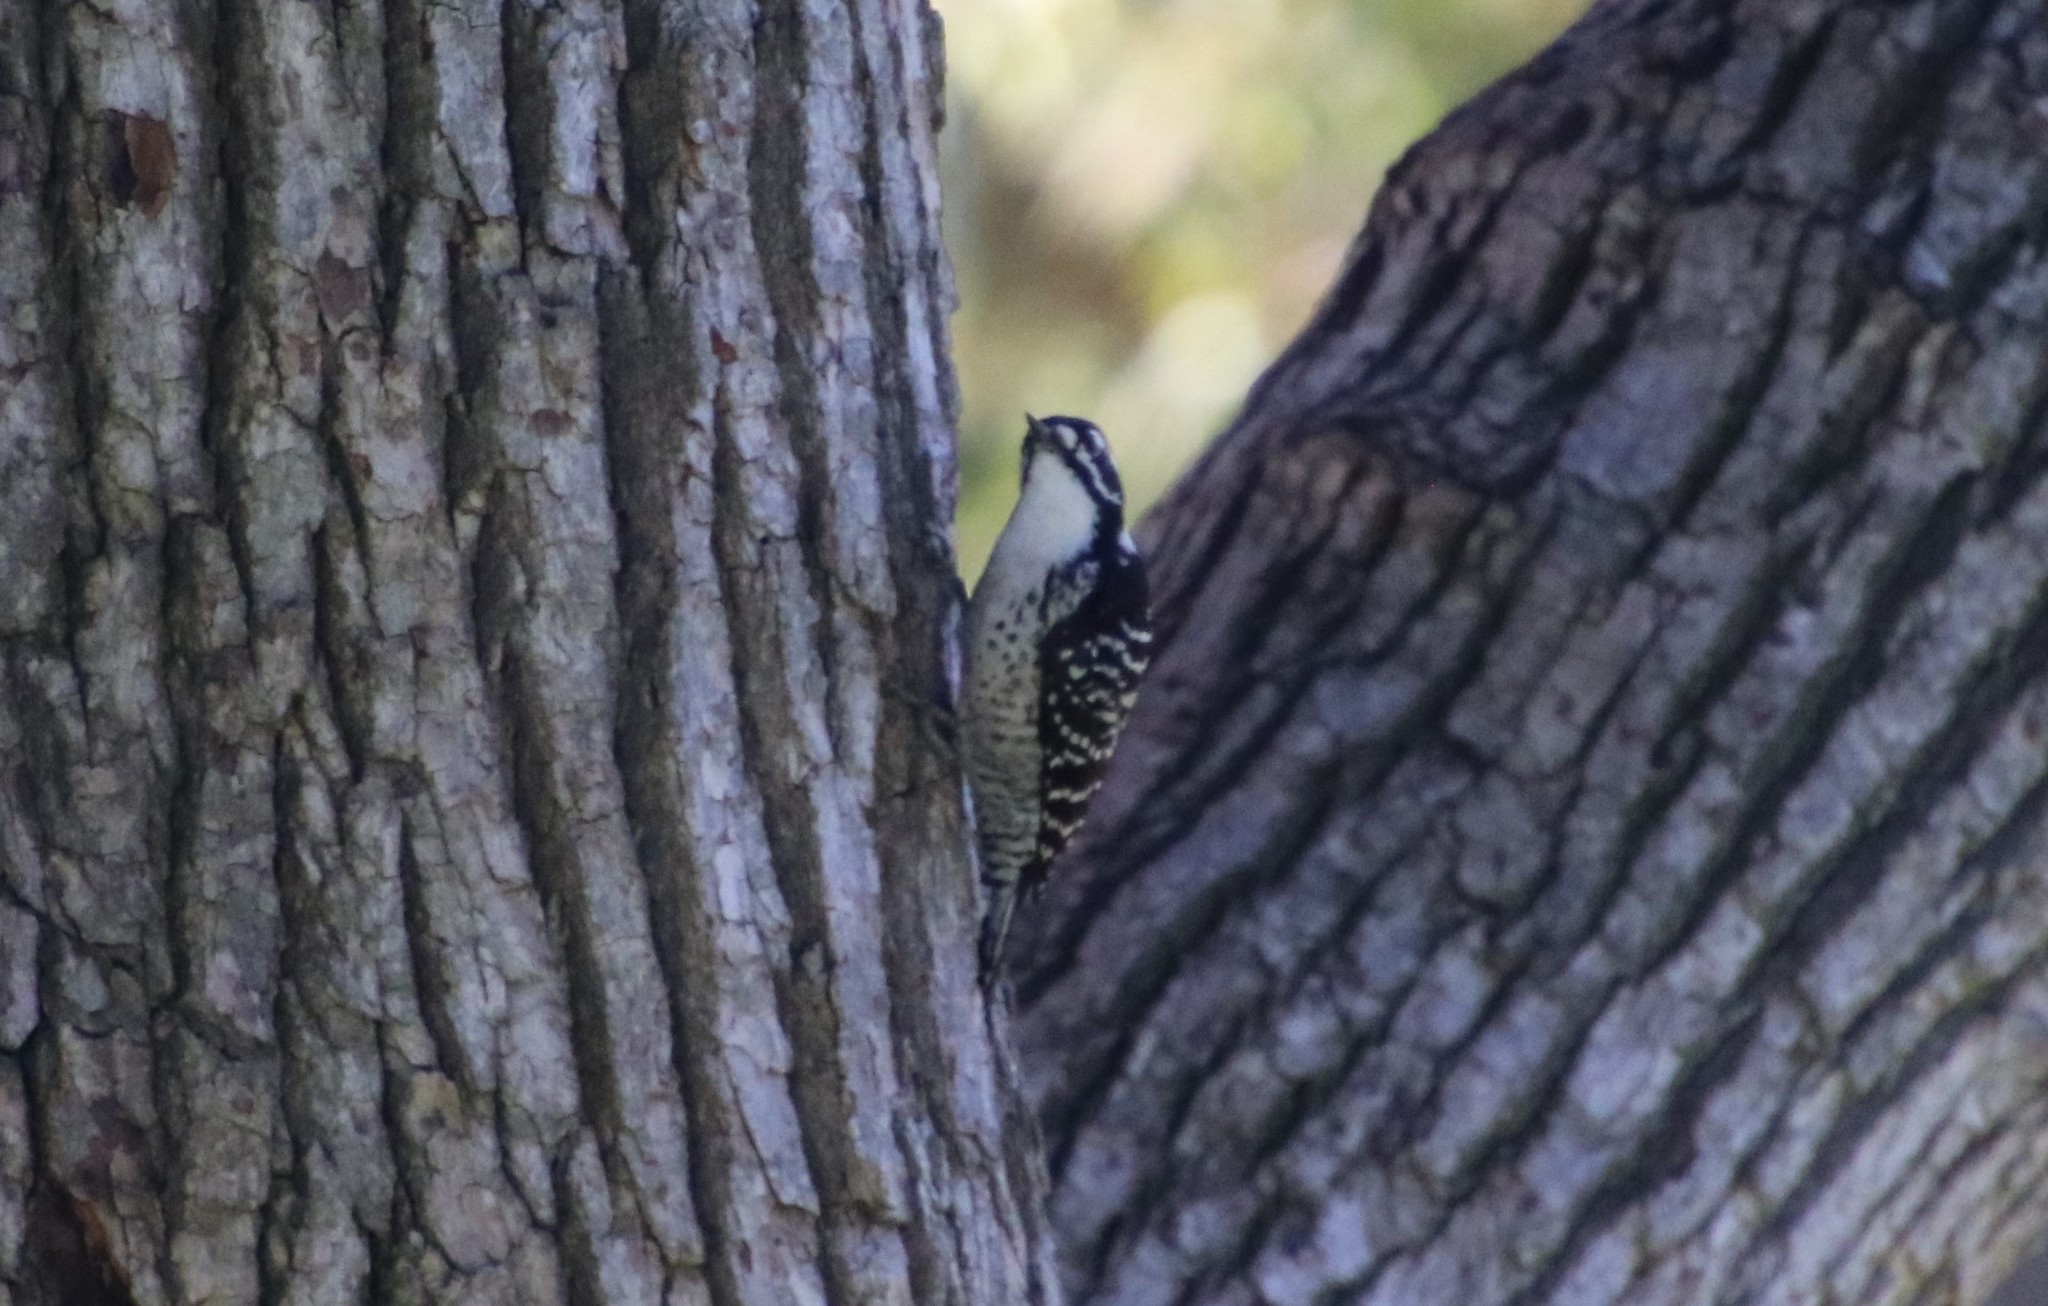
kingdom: Animalia
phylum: Chordata
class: Aves
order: Piciformes
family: Picidae
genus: Dryobates
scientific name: Dryobates nuttallii
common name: Nuttall's woodpecker
